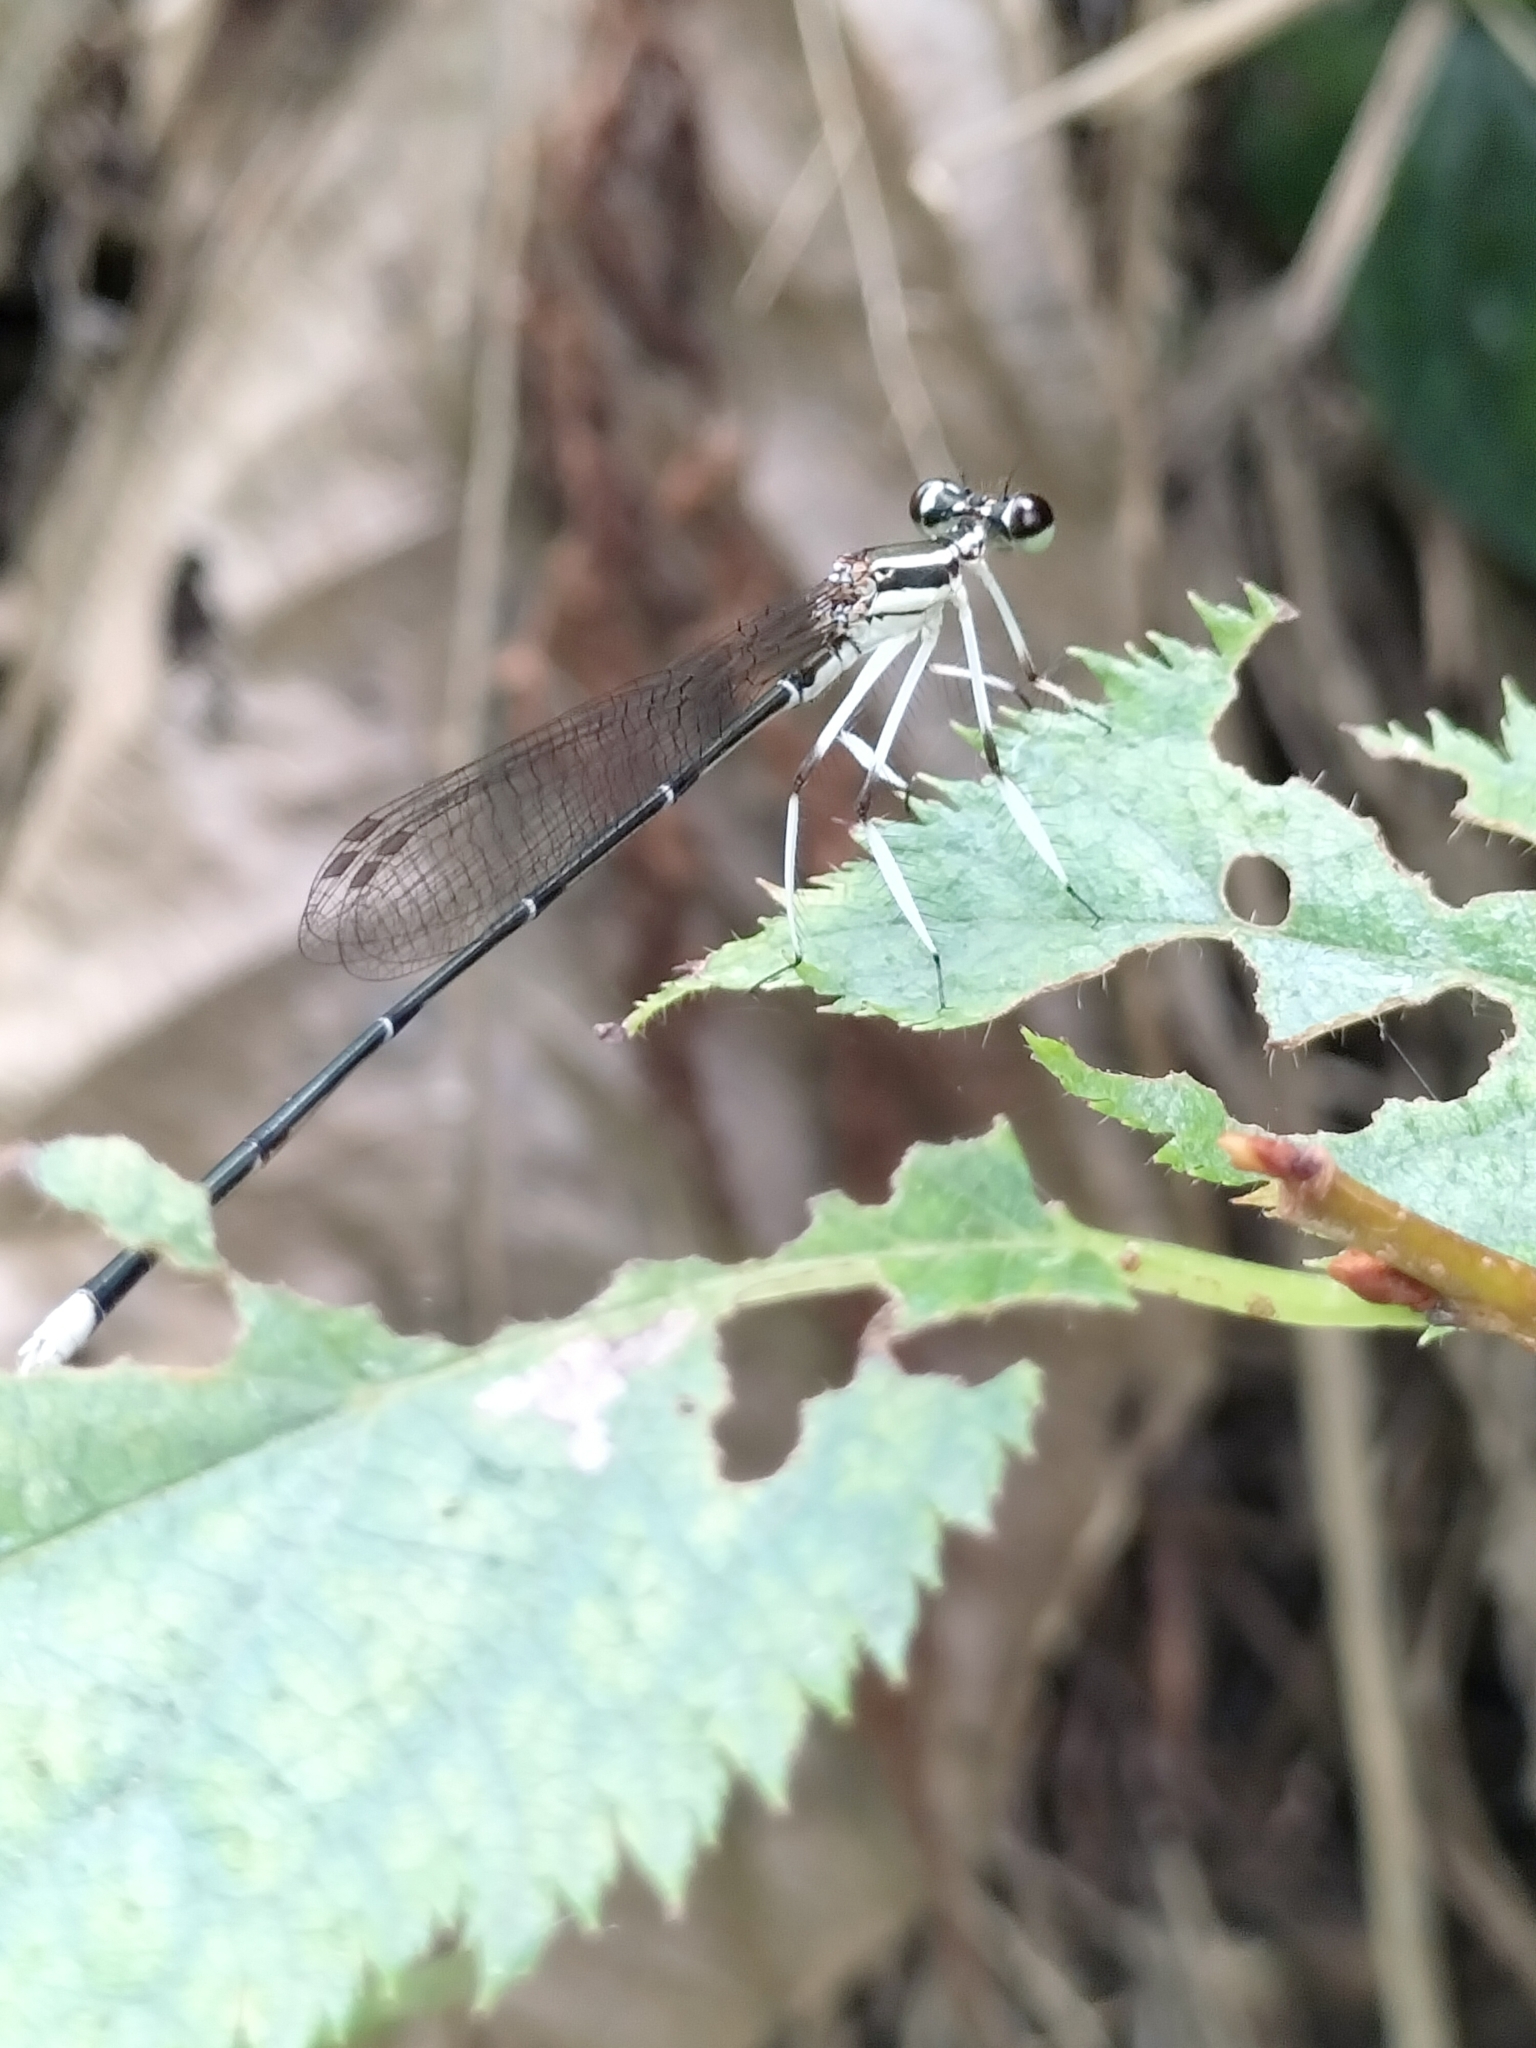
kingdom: Animalia
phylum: Arthropoda
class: Insecta
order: Odonata
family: Platycnemididae
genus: Pseudocopera
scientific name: Pseudocopera ciliata
